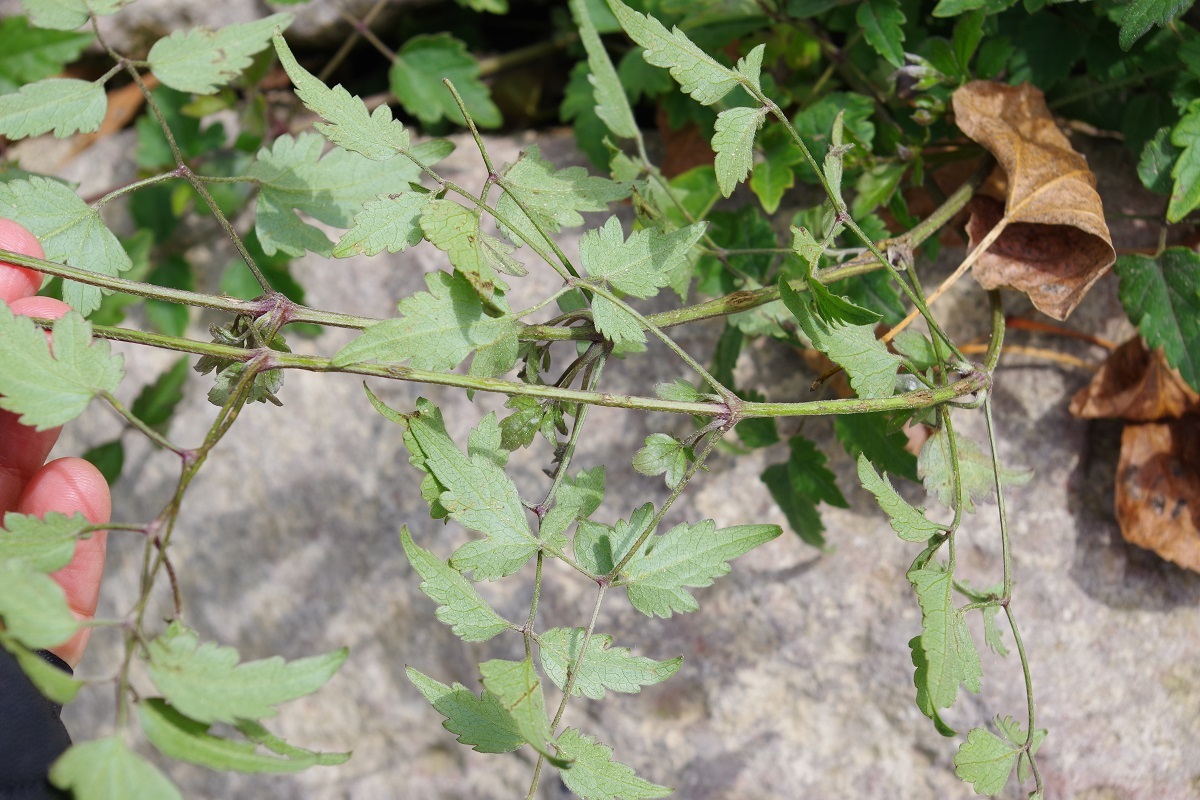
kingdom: Plantae
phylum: Tracheophyta
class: Magnoliopsida
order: Ranunculales
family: Ranunculaceae
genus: Clematis
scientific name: Clematis vitalba
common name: Evergreen clematis
